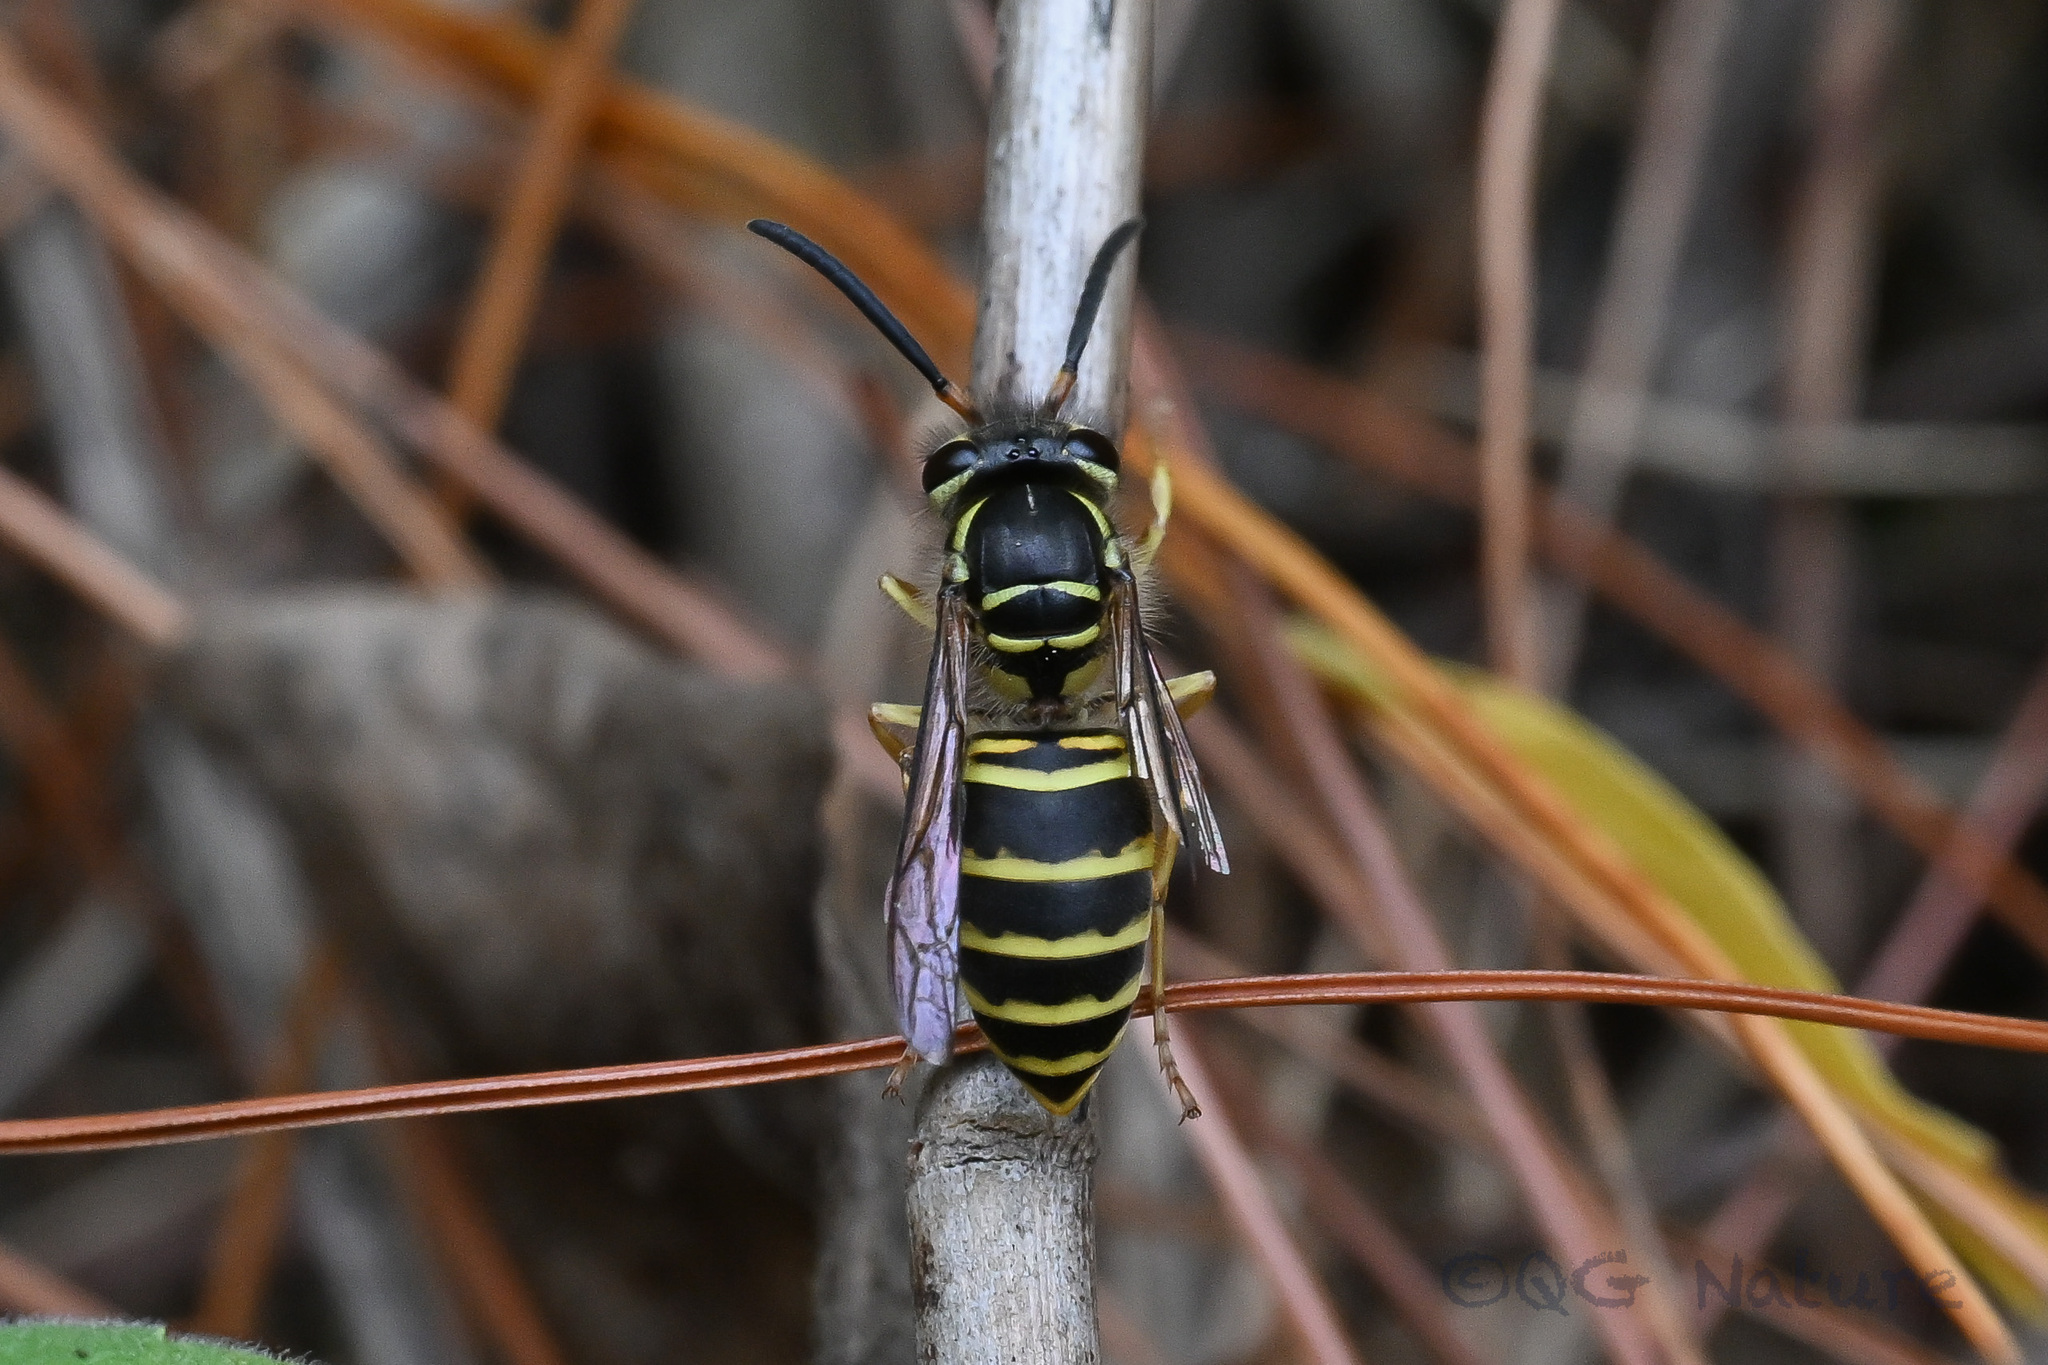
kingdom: Animalia
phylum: Arthropoda
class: Insecta
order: Hymenoptera
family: Vespidae
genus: Vespula
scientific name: Vespula flaviceps
